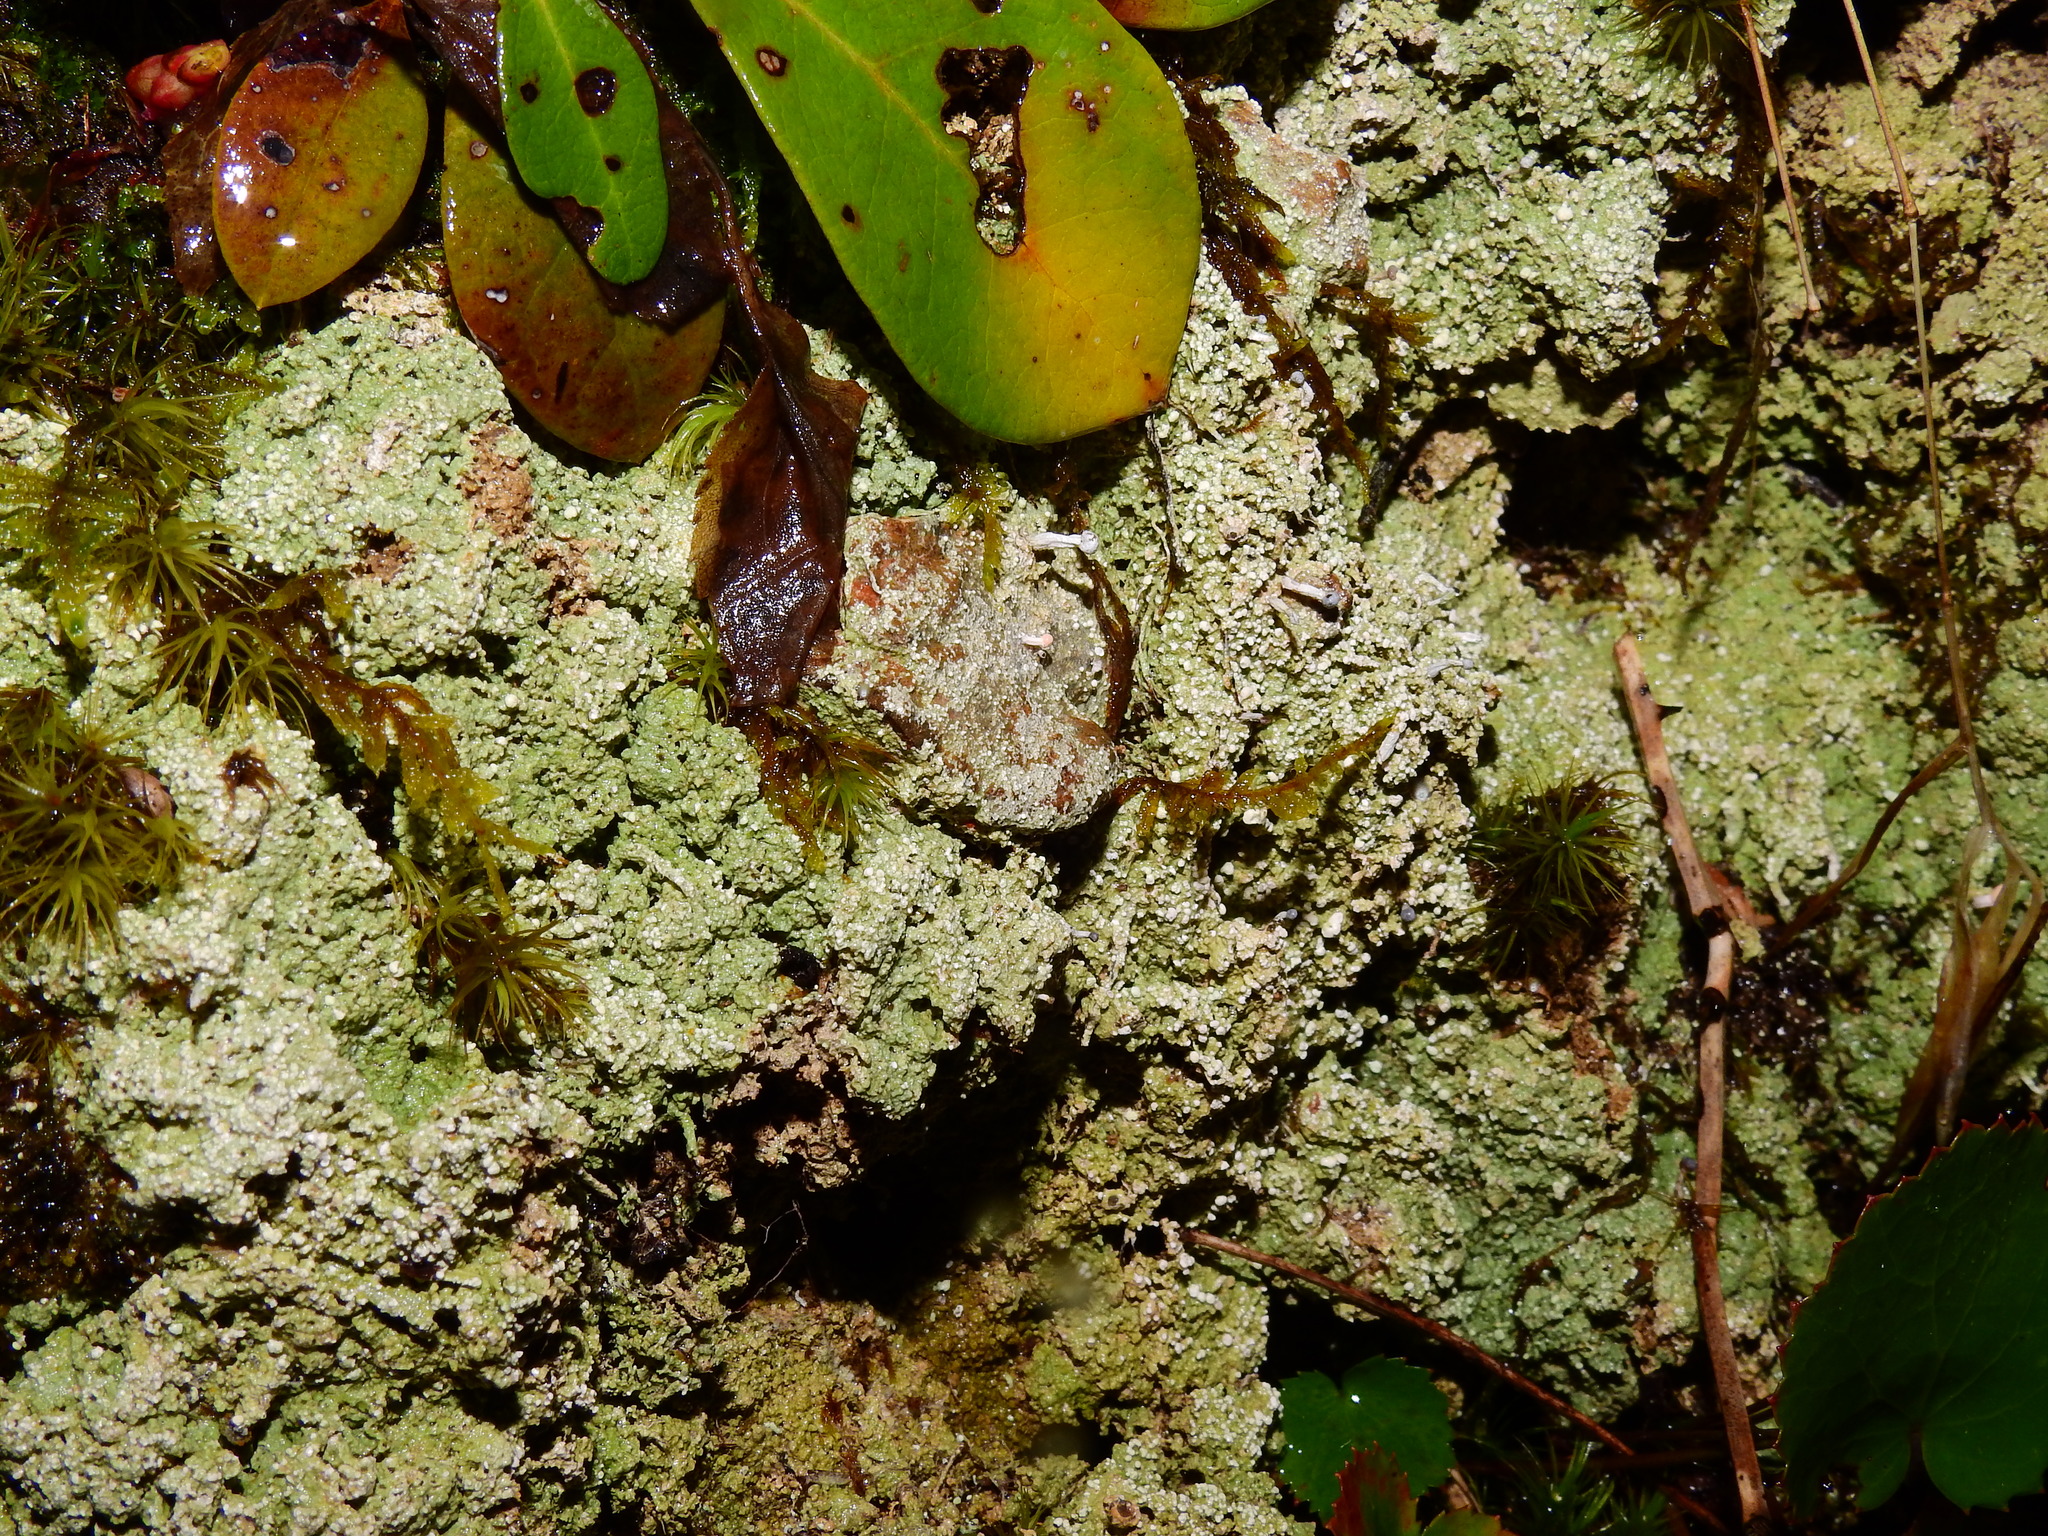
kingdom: Fungi
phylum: Ascomycota
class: Lecanoromycetes
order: Pertusariales
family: Icmadophilaceae
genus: Dibaeis
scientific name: Dibaeis baeomyces
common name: Pink earth lichen
